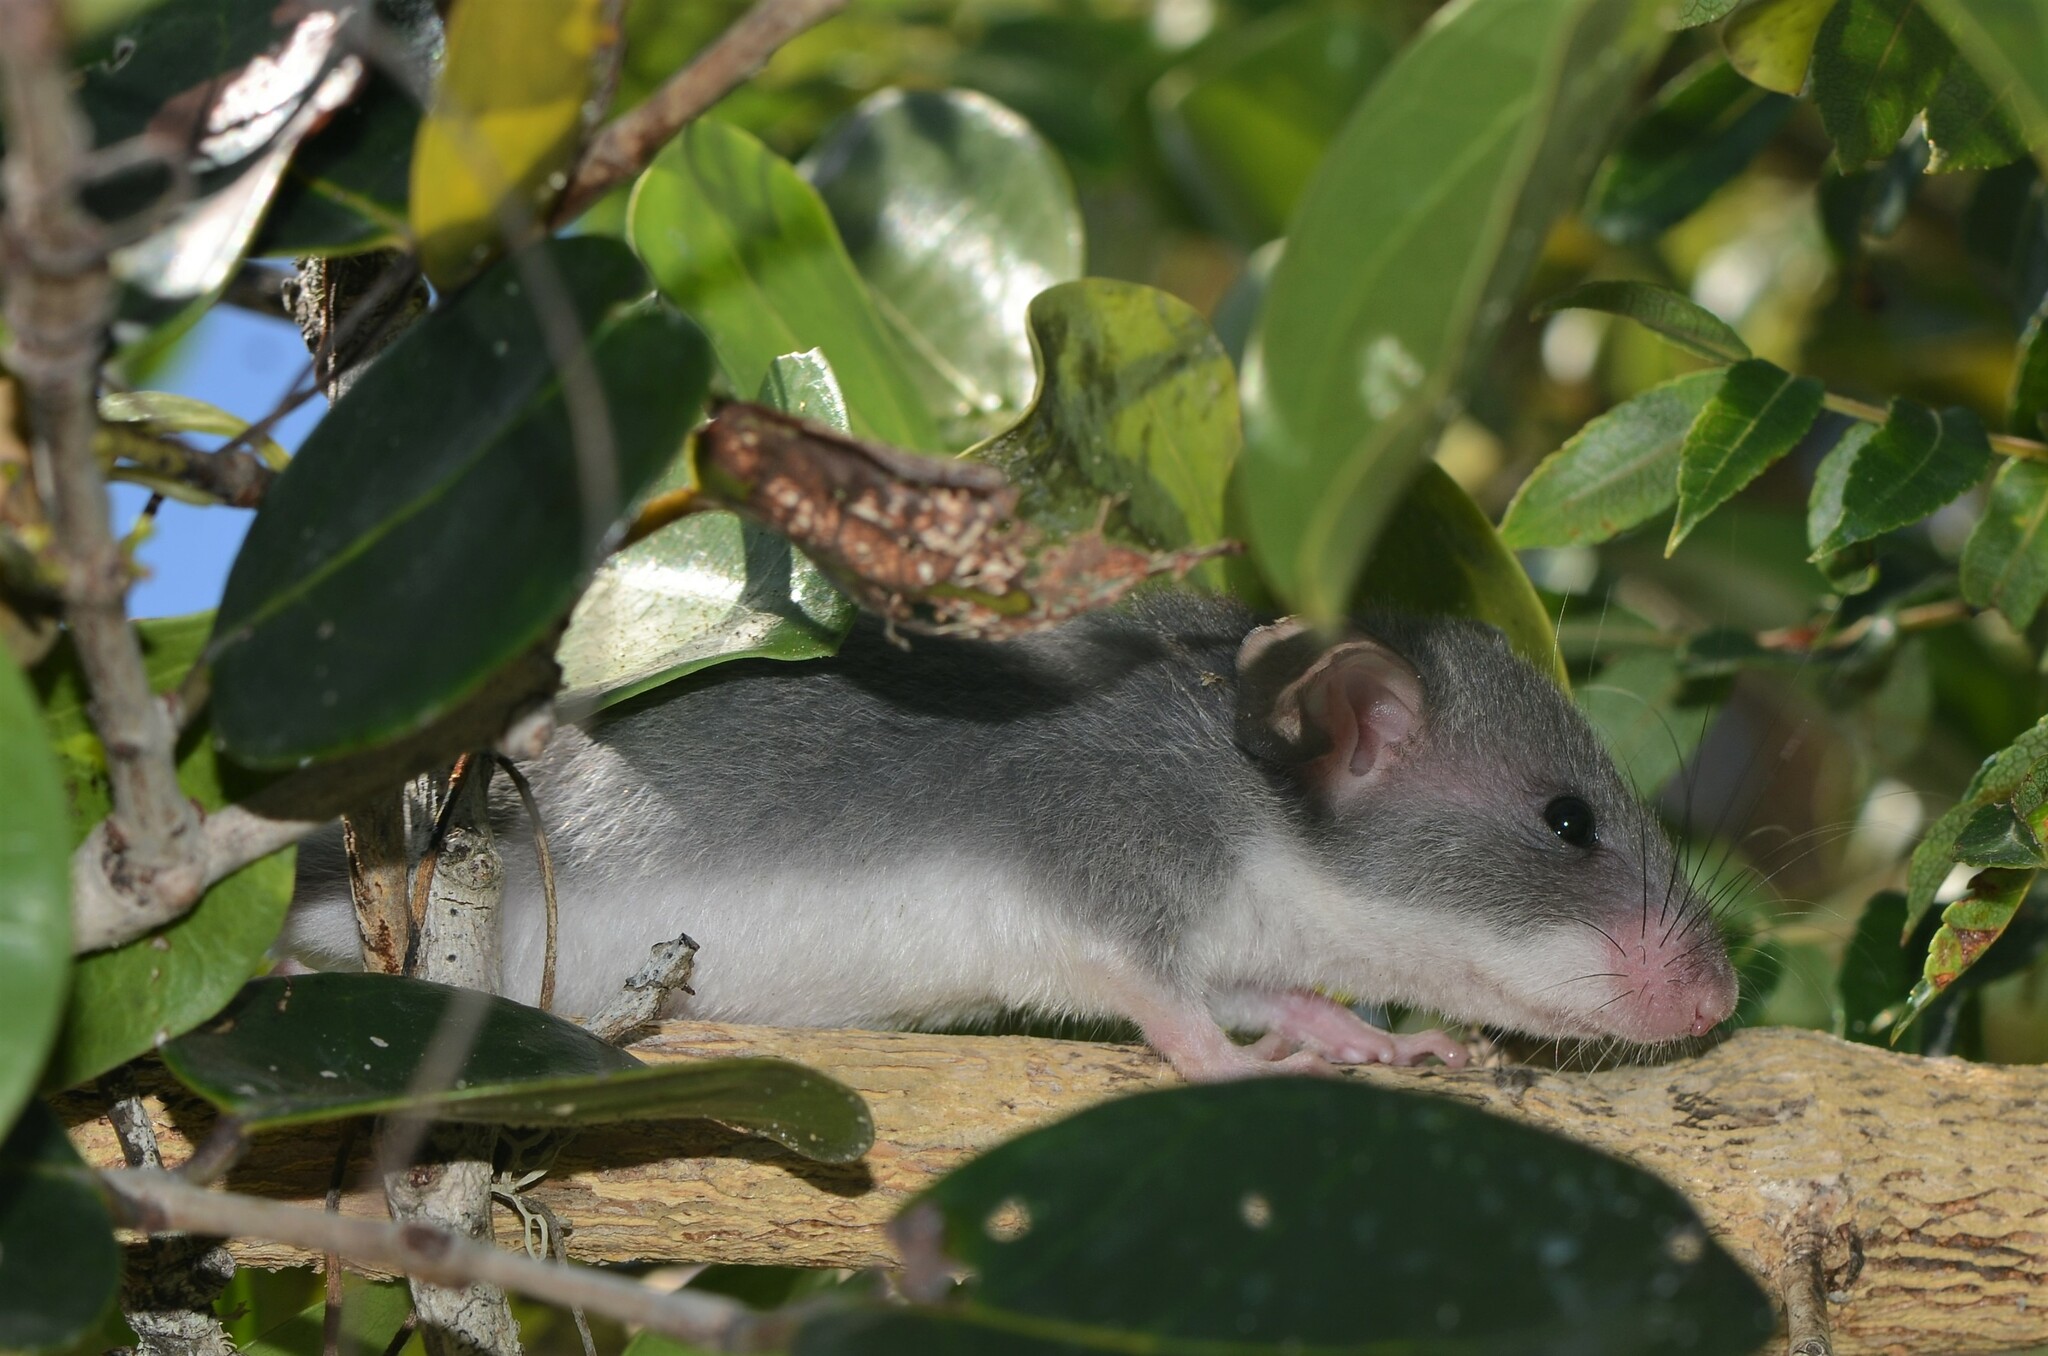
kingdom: Animalia
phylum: Chordata
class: Mammalia
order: Rodentia
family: Nesomyidae
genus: Beamys
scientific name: Beamys hindei
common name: Lesser hamster-rat, long-tailed pouched rat
